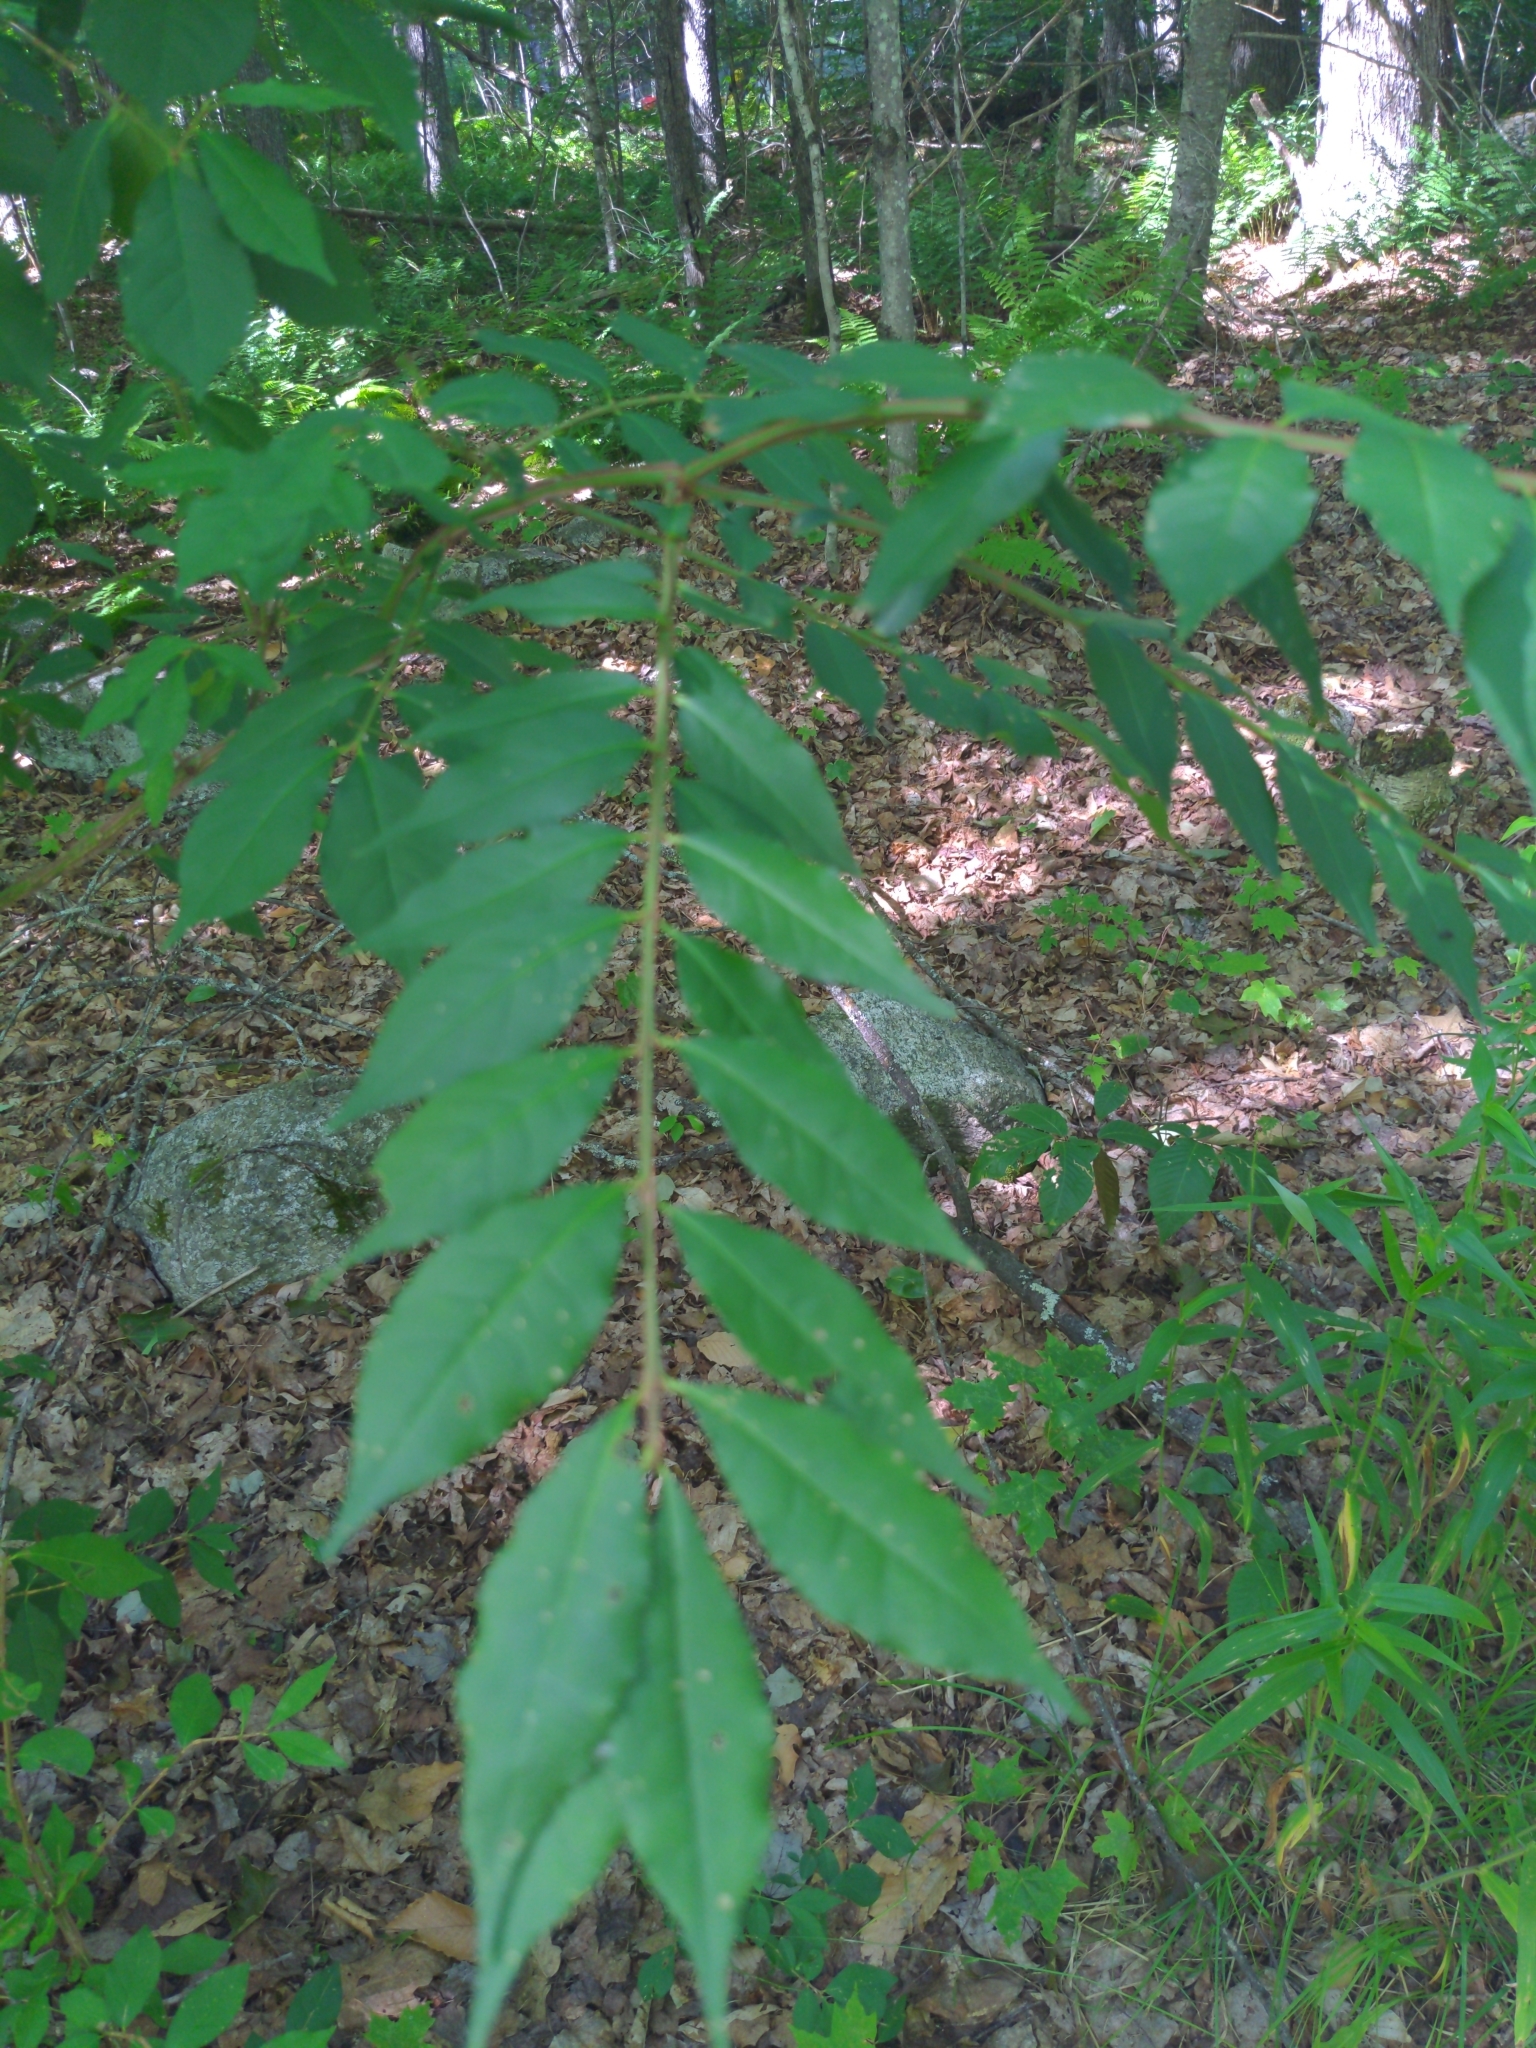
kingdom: Plantae
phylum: Tracheophyta
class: Magnoliopsida
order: Celastrales
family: Celastraceae
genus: Euonymus
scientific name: Euonymus alatus
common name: Winged euonymus
